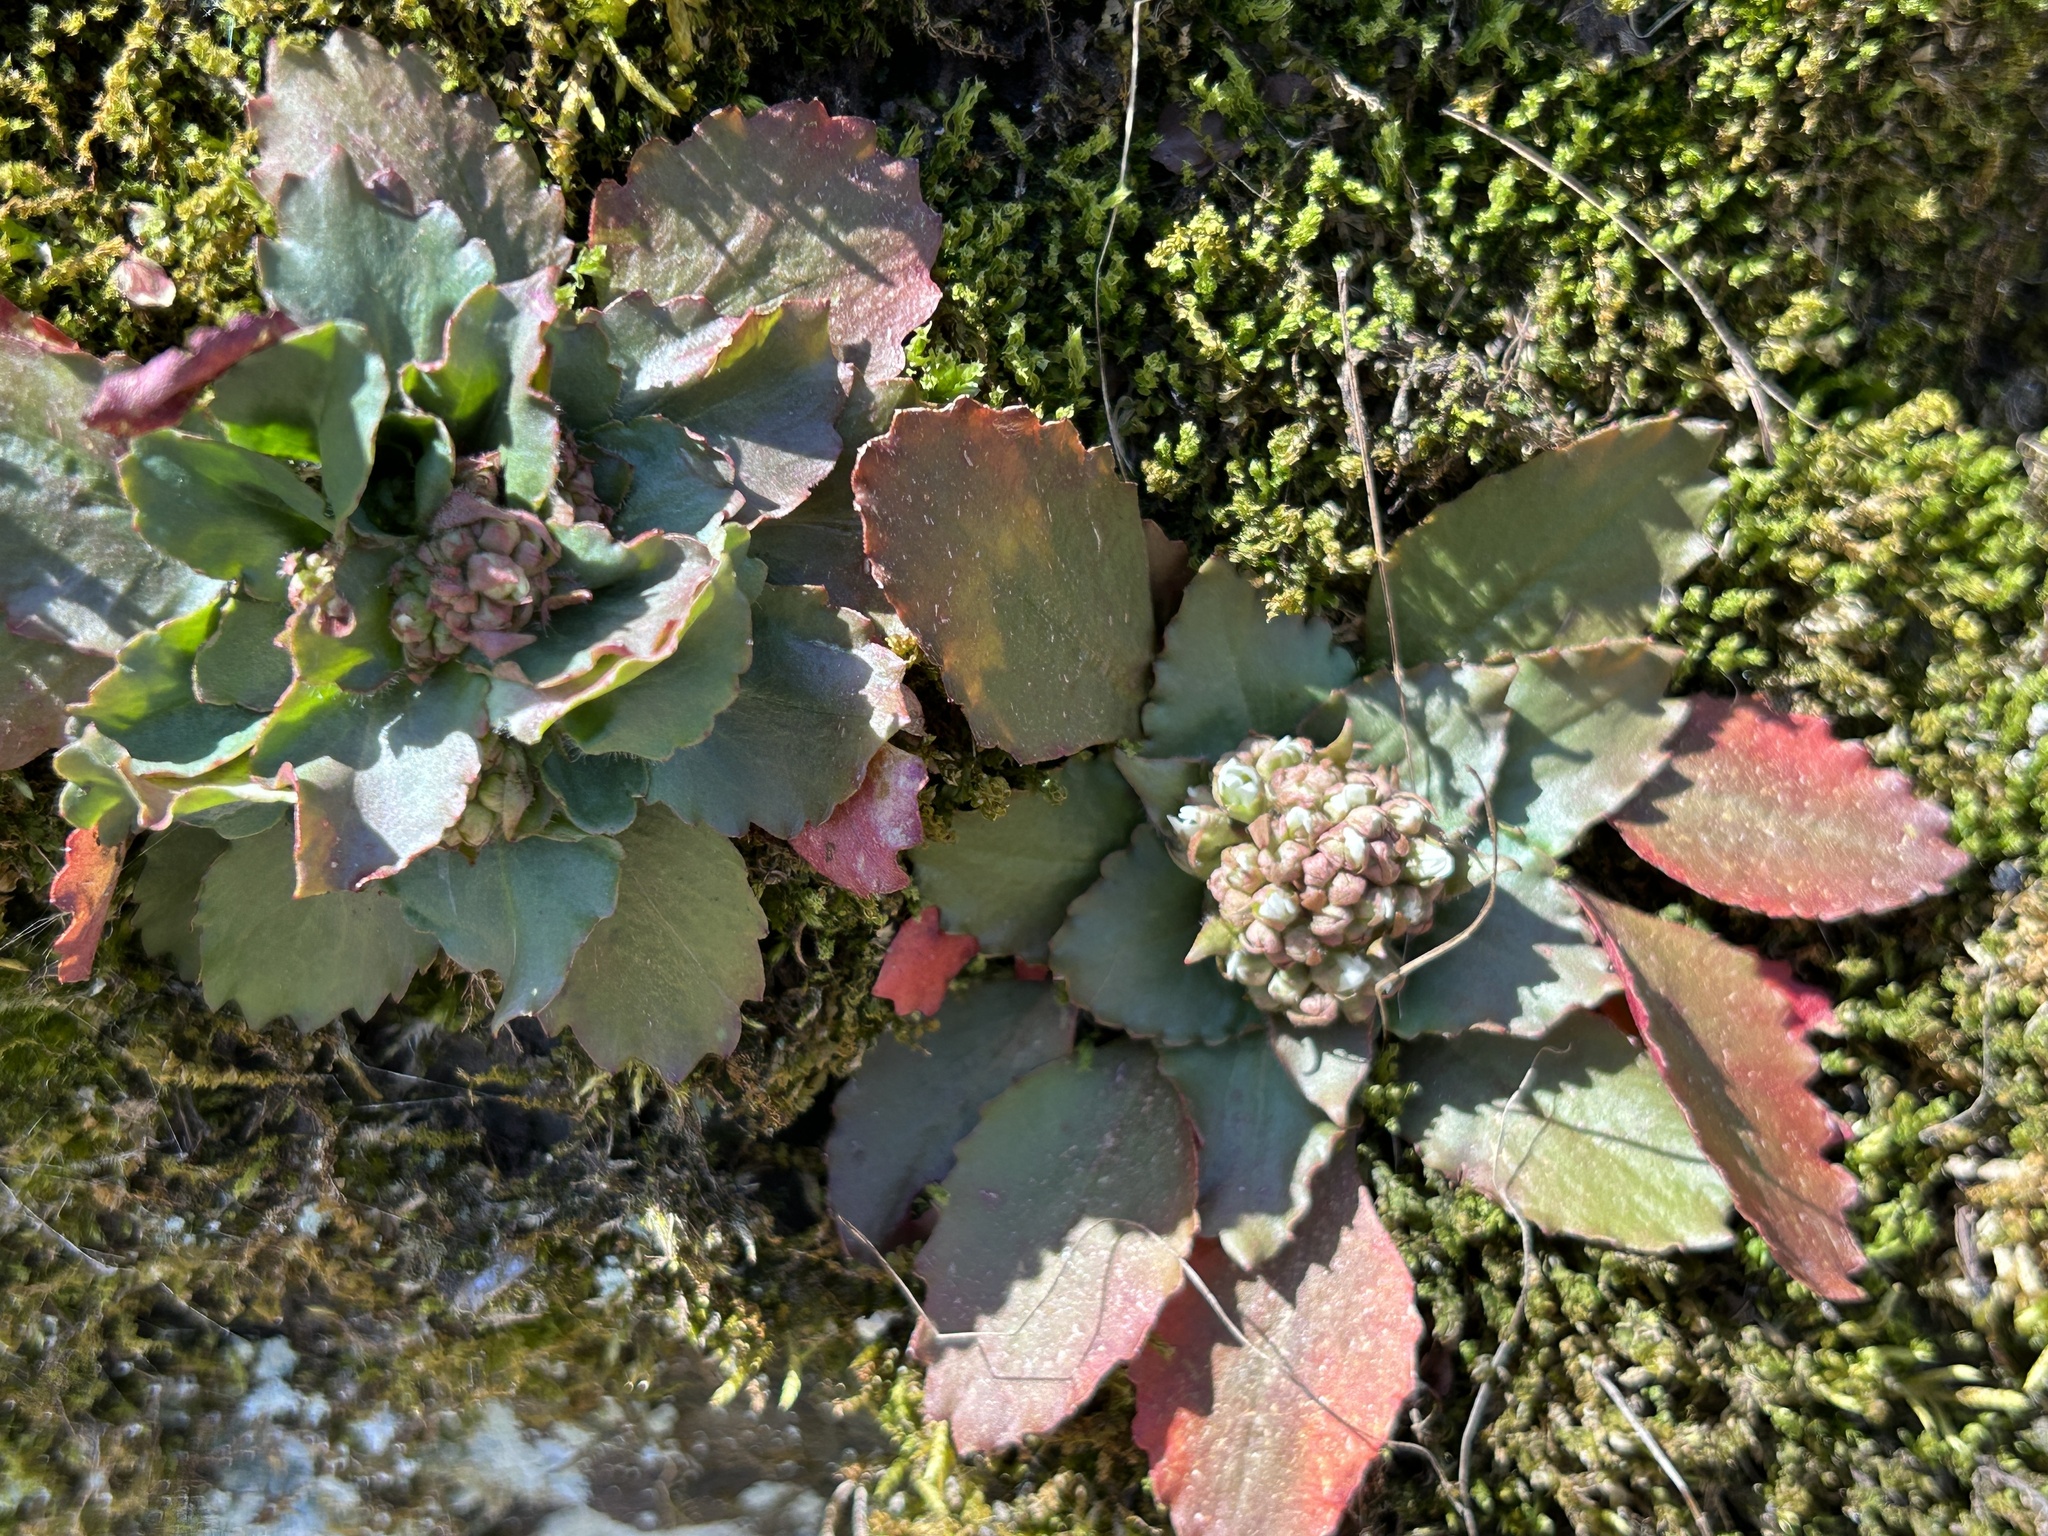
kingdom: Plantae
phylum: Tracheophyta
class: Magnoliopsida
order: Saxifragales
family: Saxifragaceae
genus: Micranthes
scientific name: Micranthes virginiensis
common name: Early saxifrage
